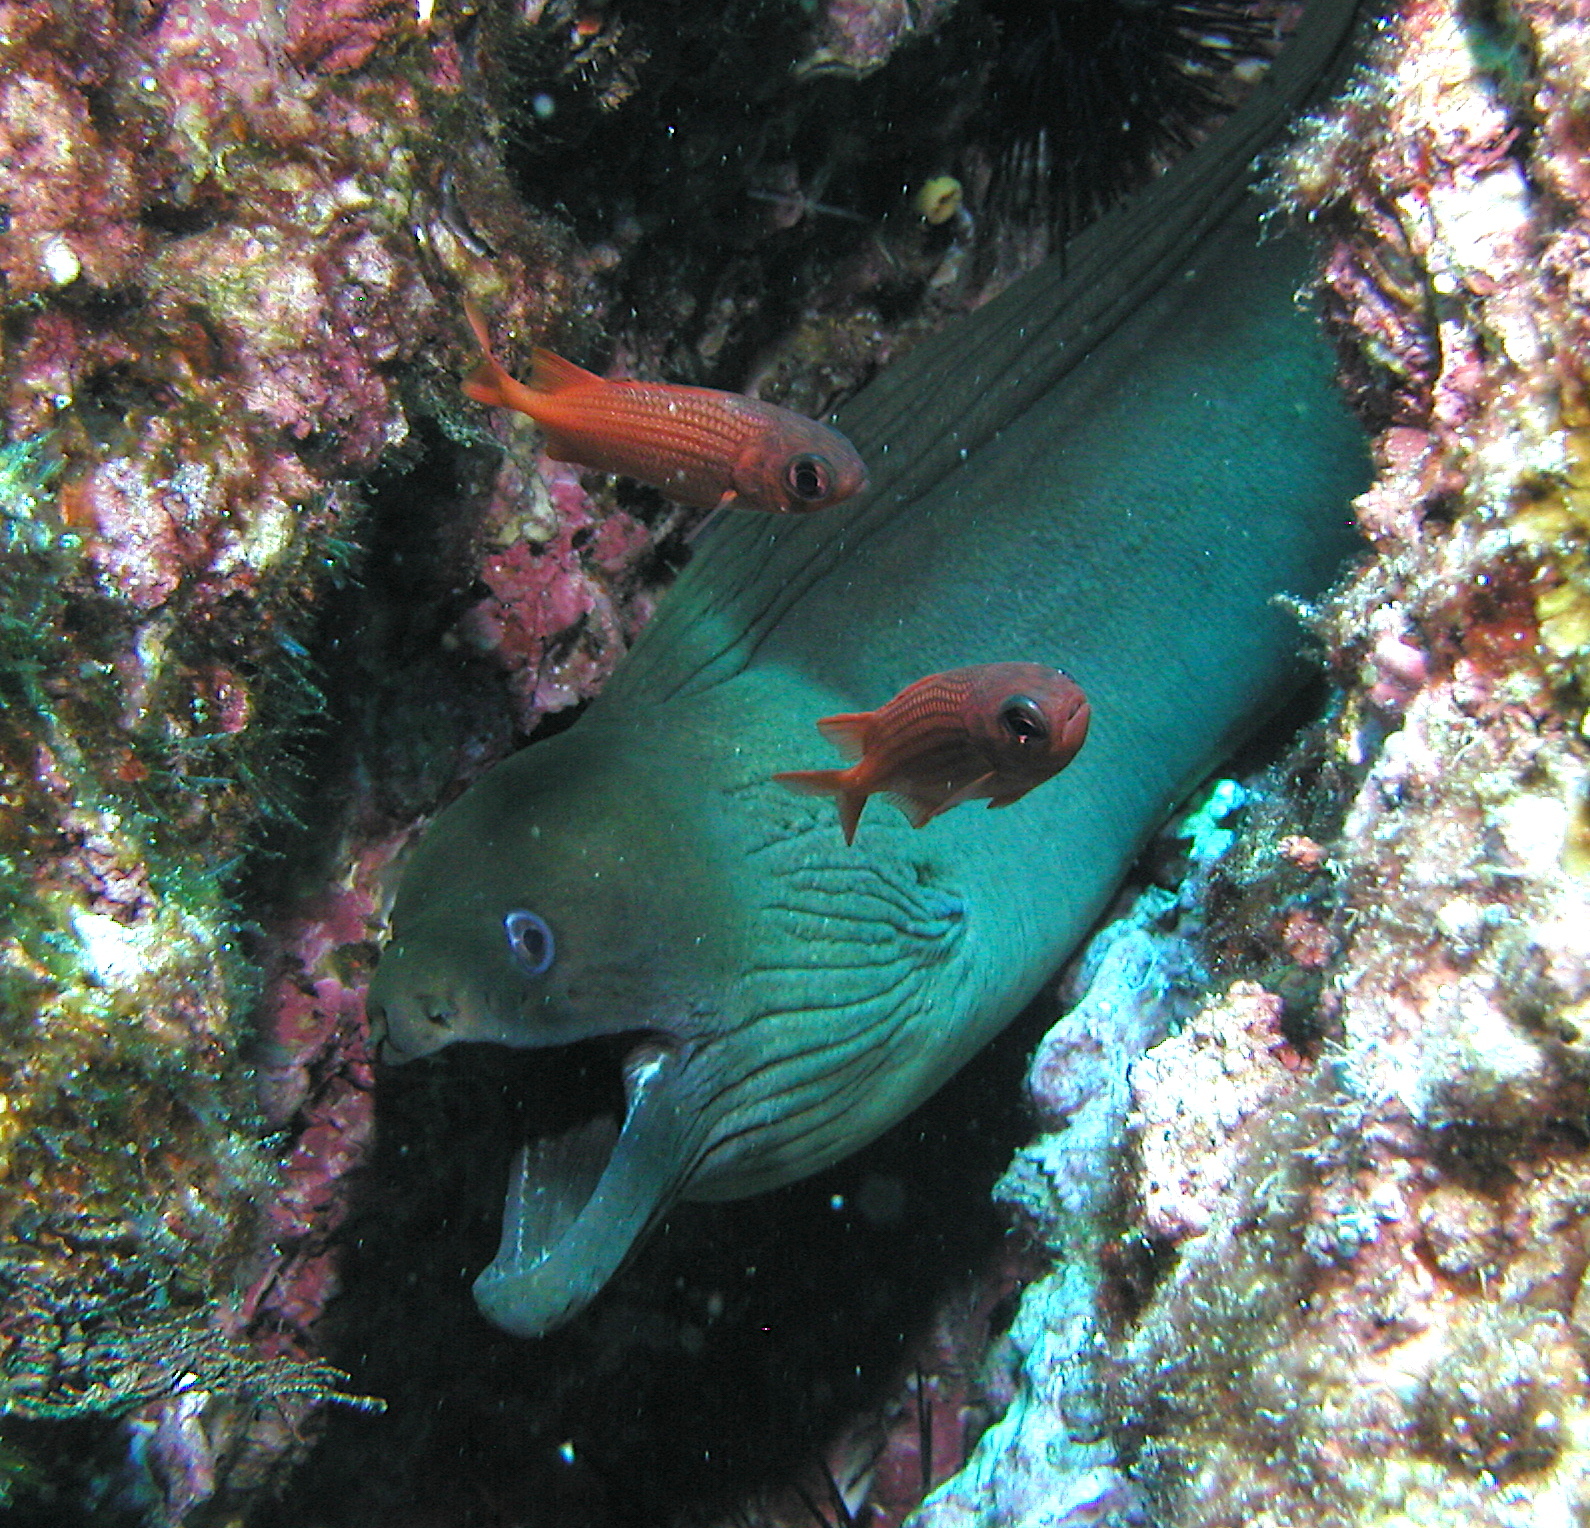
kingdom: Animalia
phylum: Chordata
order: Anguilliformes
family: Muraenidae
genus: Gymnothorax
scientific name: Gymnothorax castaneus
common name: Chestnut moray
